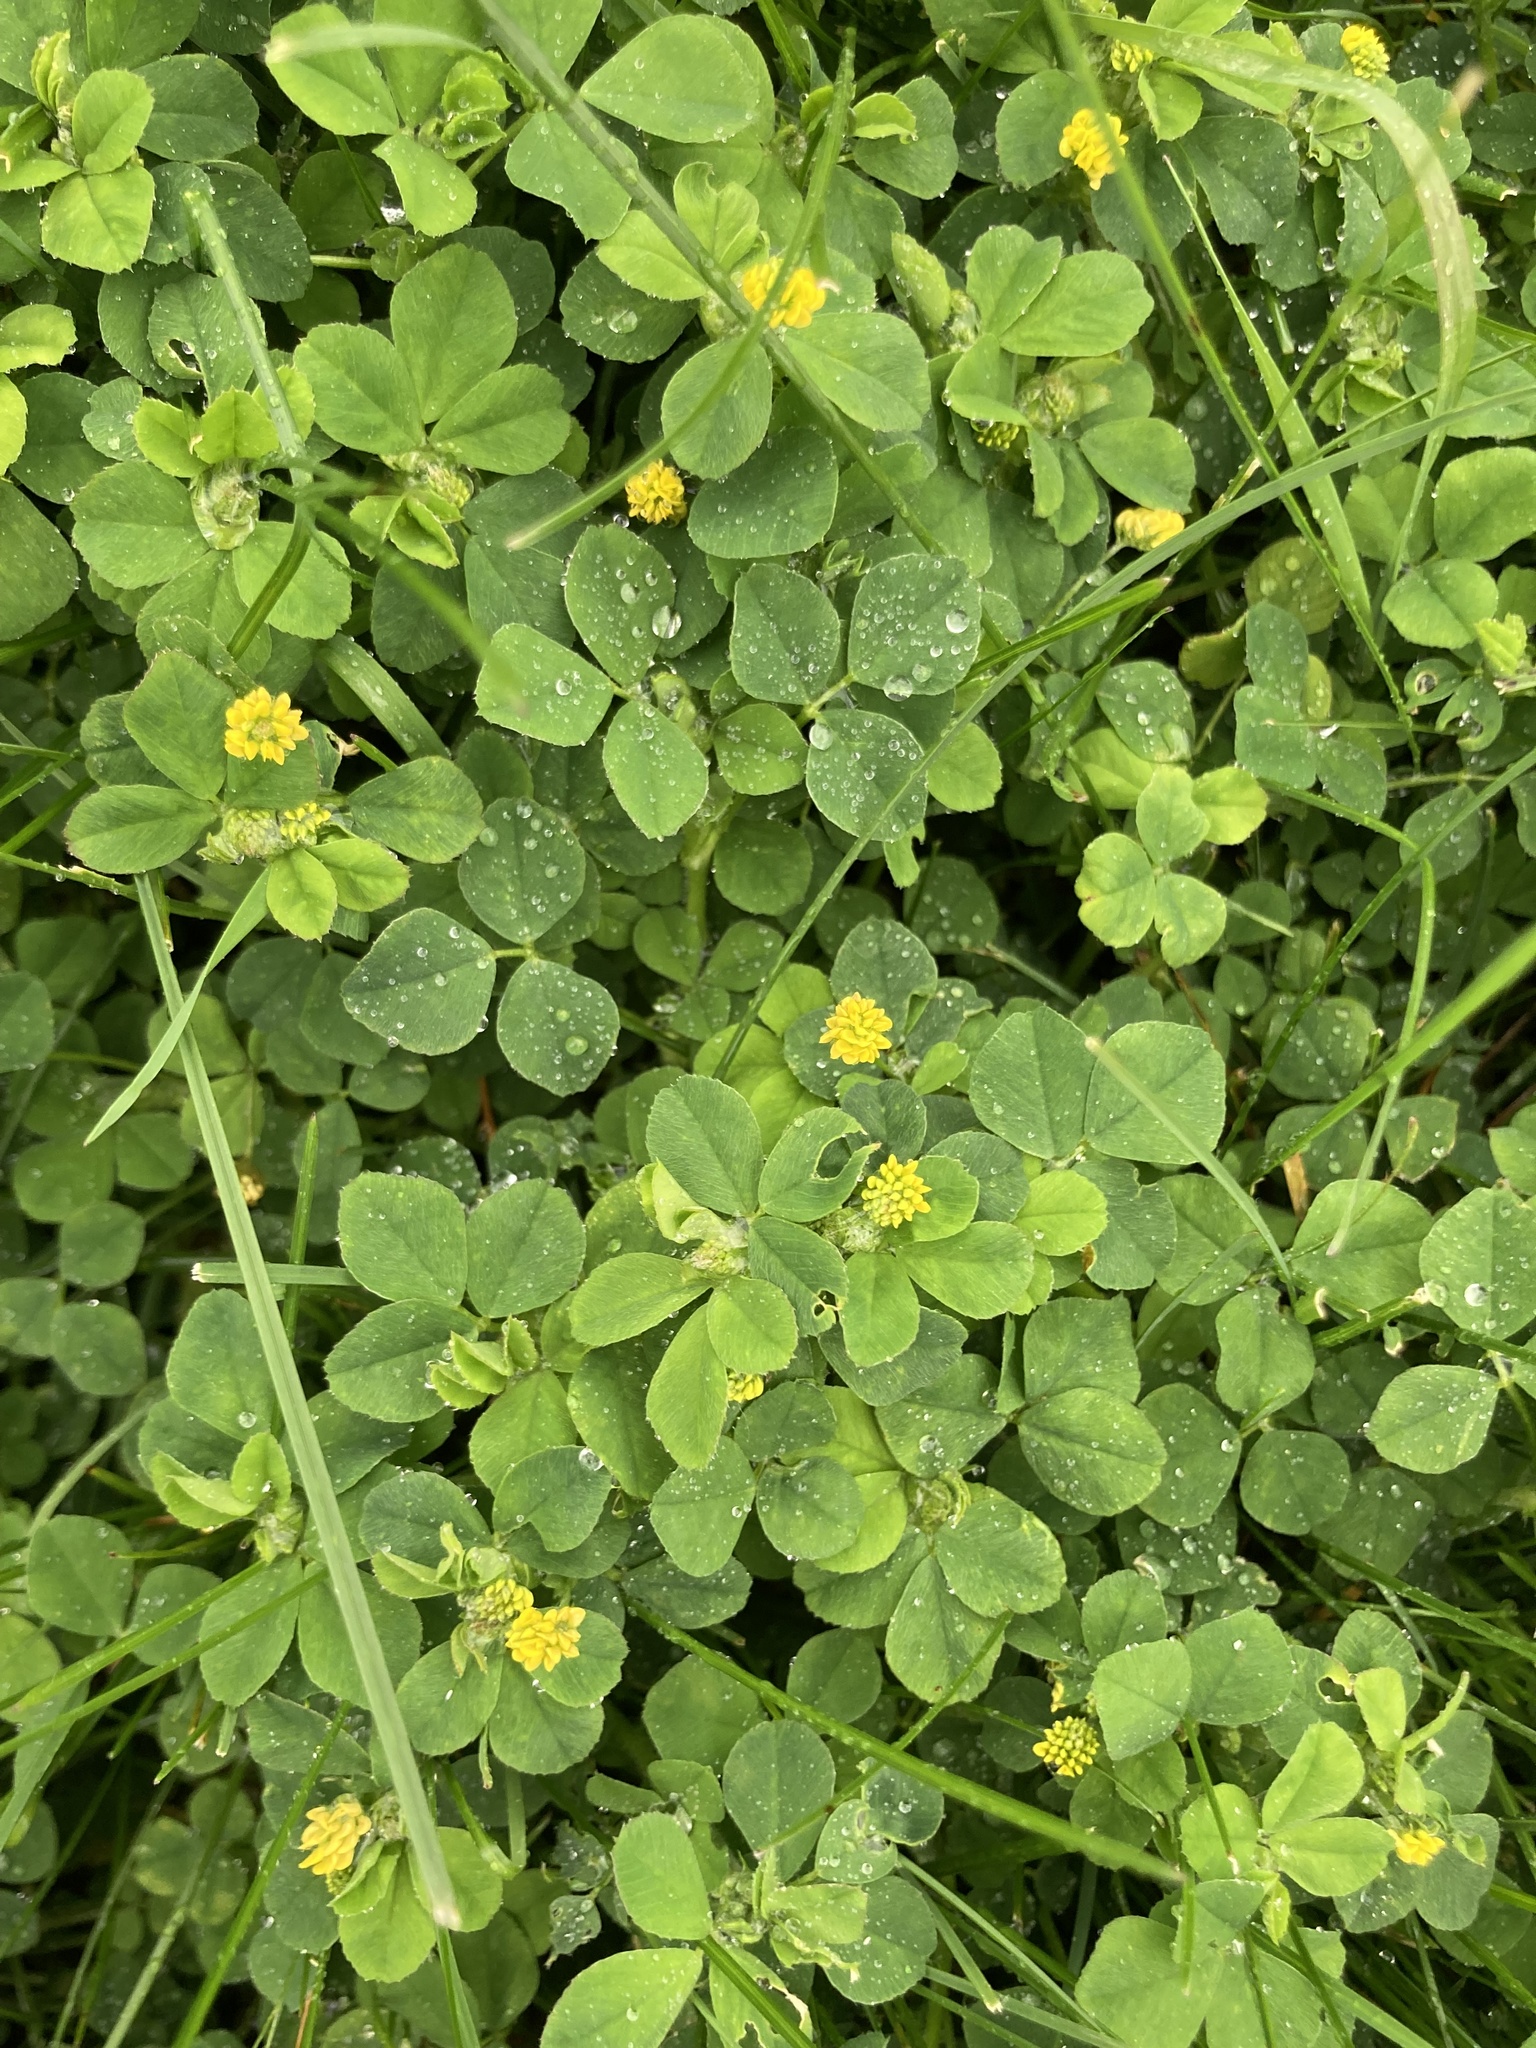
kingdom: Plantae
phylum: Tracheophyta
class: Magnoliopsida
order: Fabales
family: Fabaceae
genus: Medicago
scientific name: Medicago lupulina
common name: Black medick
